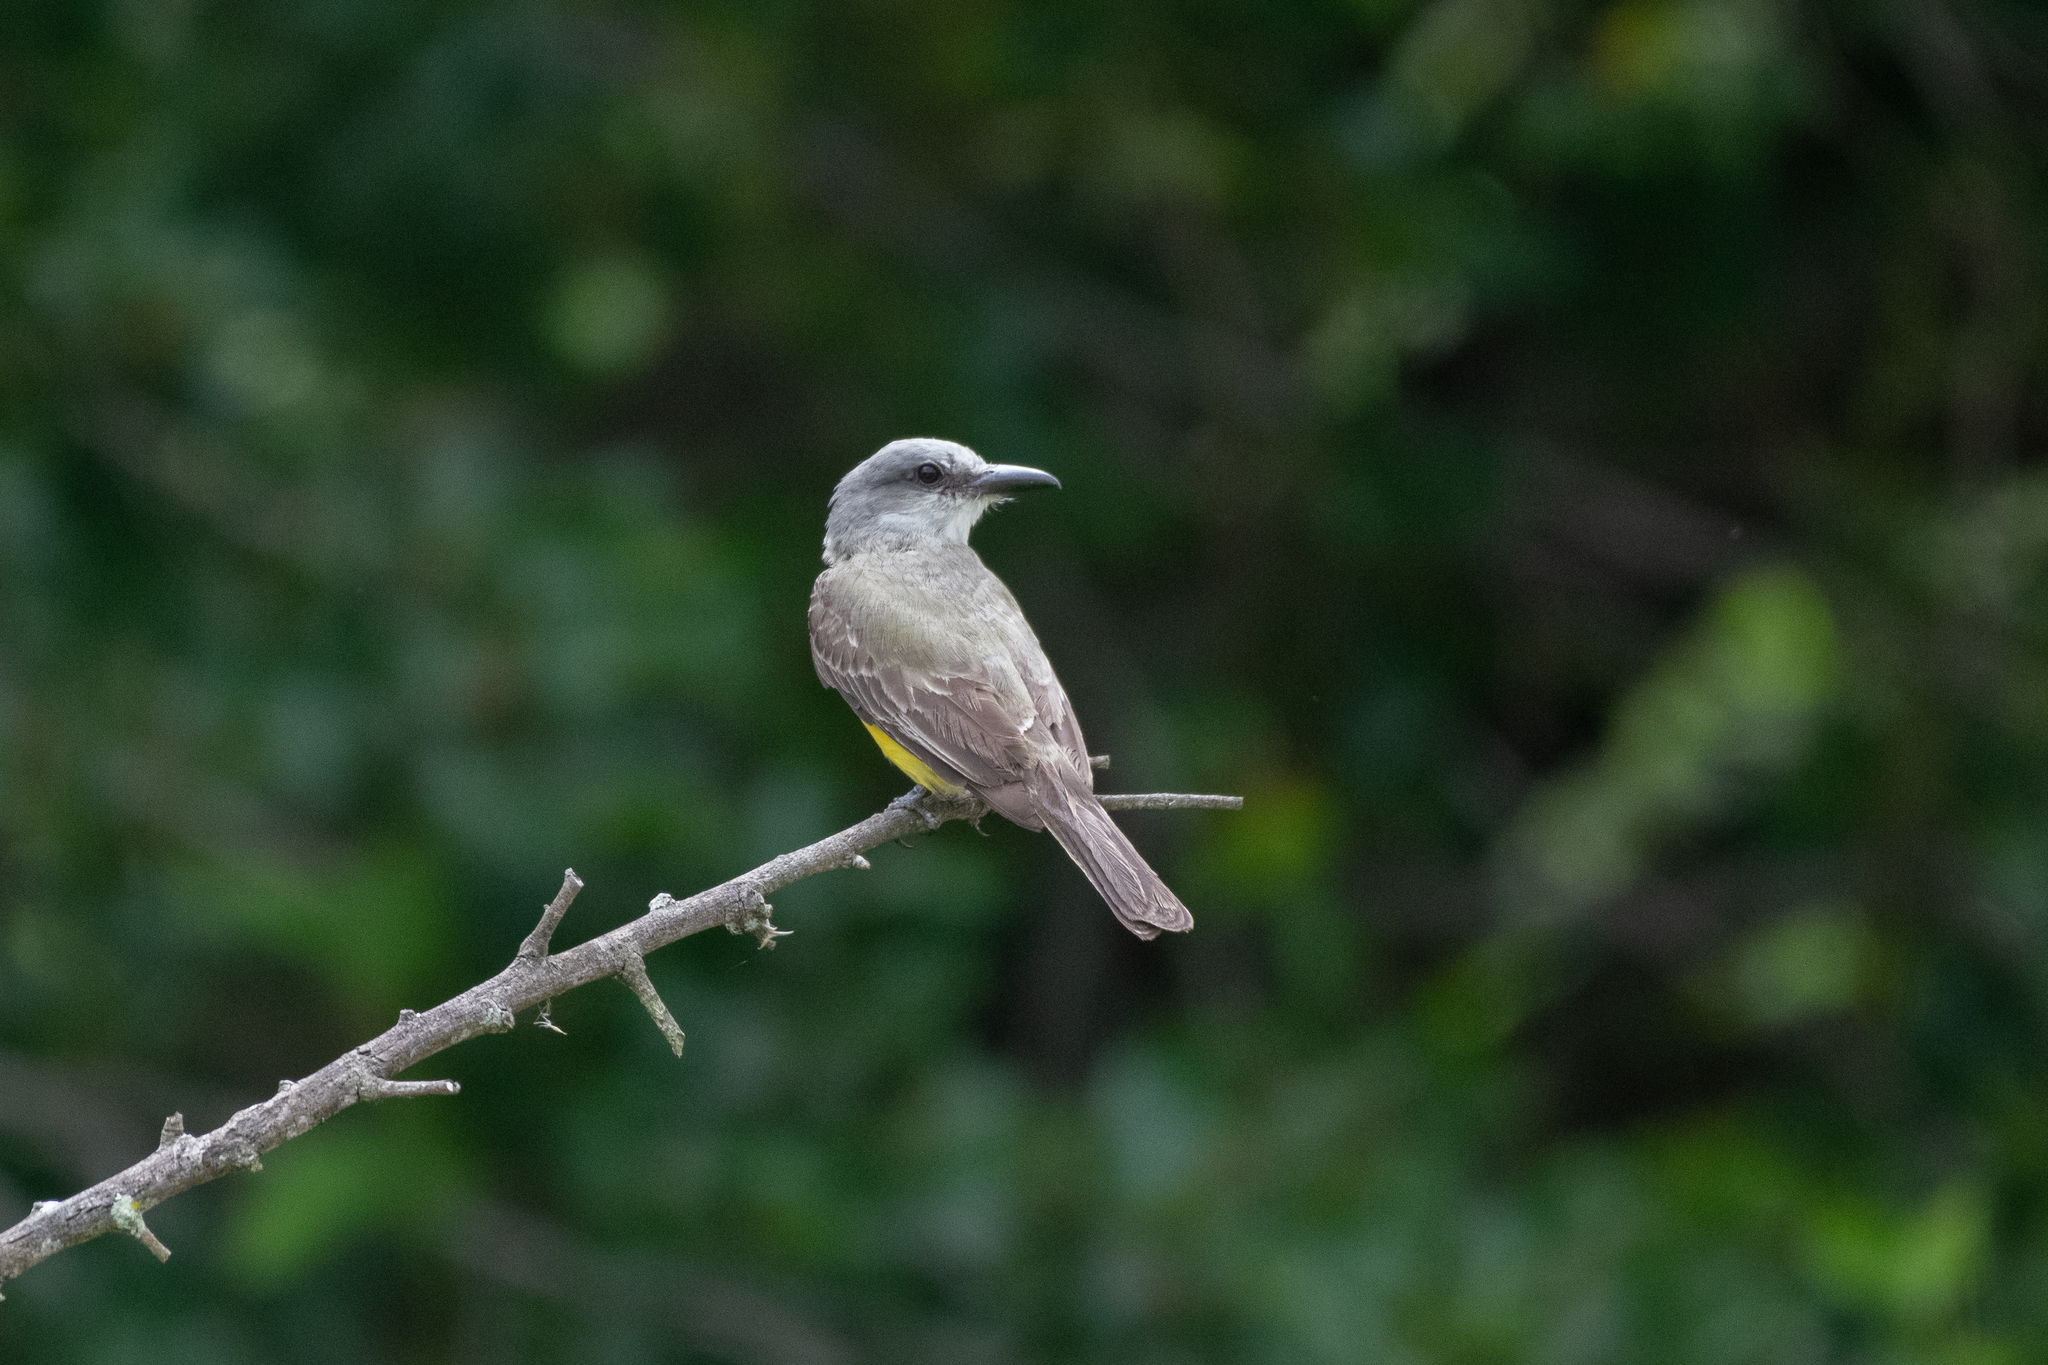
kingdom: Animalia
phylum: Chordata
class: Aves
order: Passeriformes
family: Tyrannidae
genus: Tyrannus
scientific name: Tyrannus melancholicus
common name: Tropical kingbird
